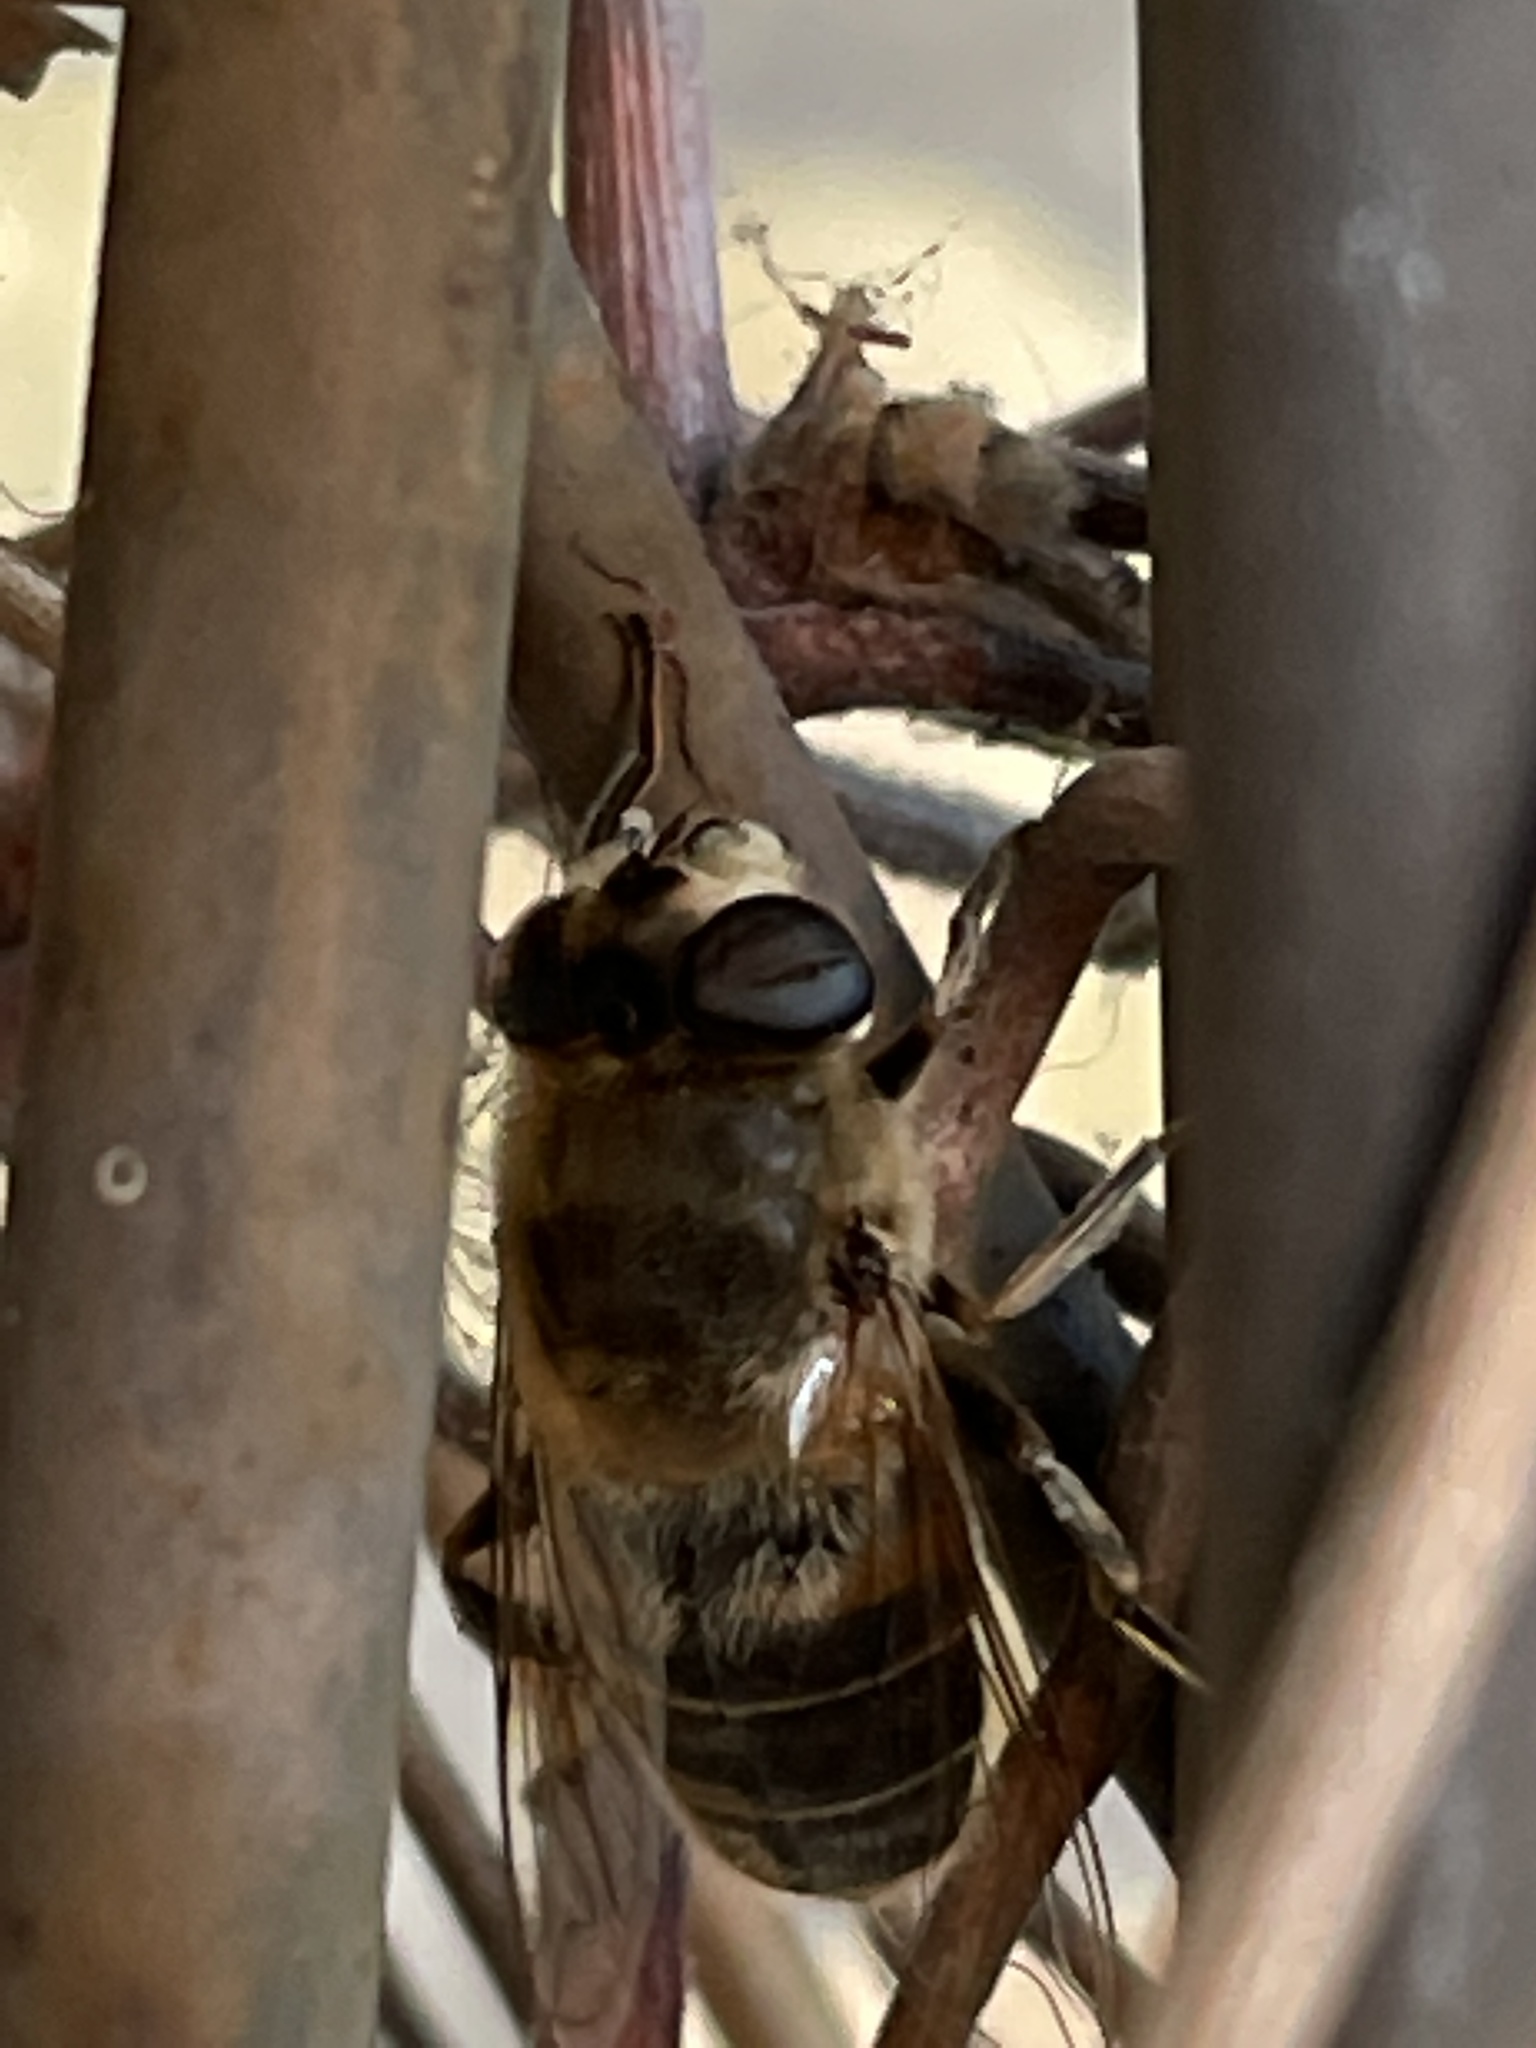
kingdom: Animalia
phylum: Arthropoda
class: Insecta
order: Diptera
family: Syrphidae
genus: Eristalis
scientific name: Eristalis tenax
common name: Drone fly
